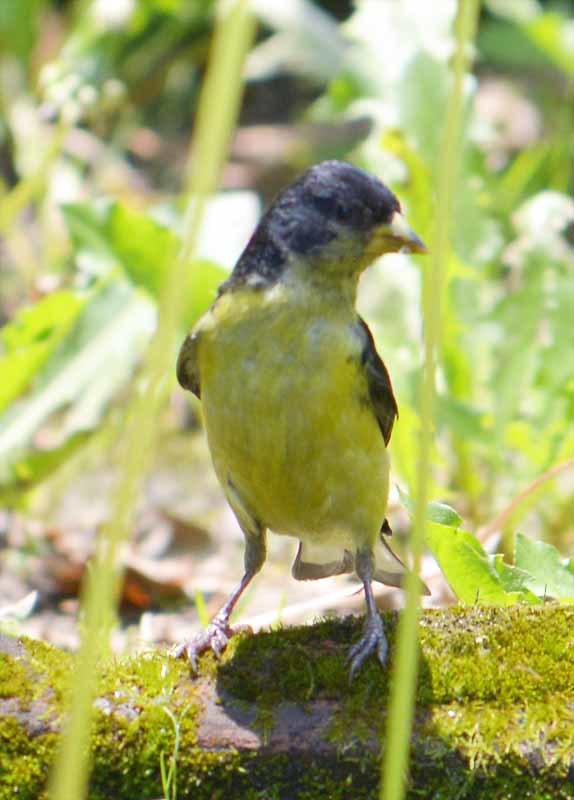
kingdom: Animalia
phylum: Chordata
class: Aves
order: Passeriformes
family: Fringillidae
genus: Spinus
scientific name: Spinus psaltria
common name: Lesser goldfinch
